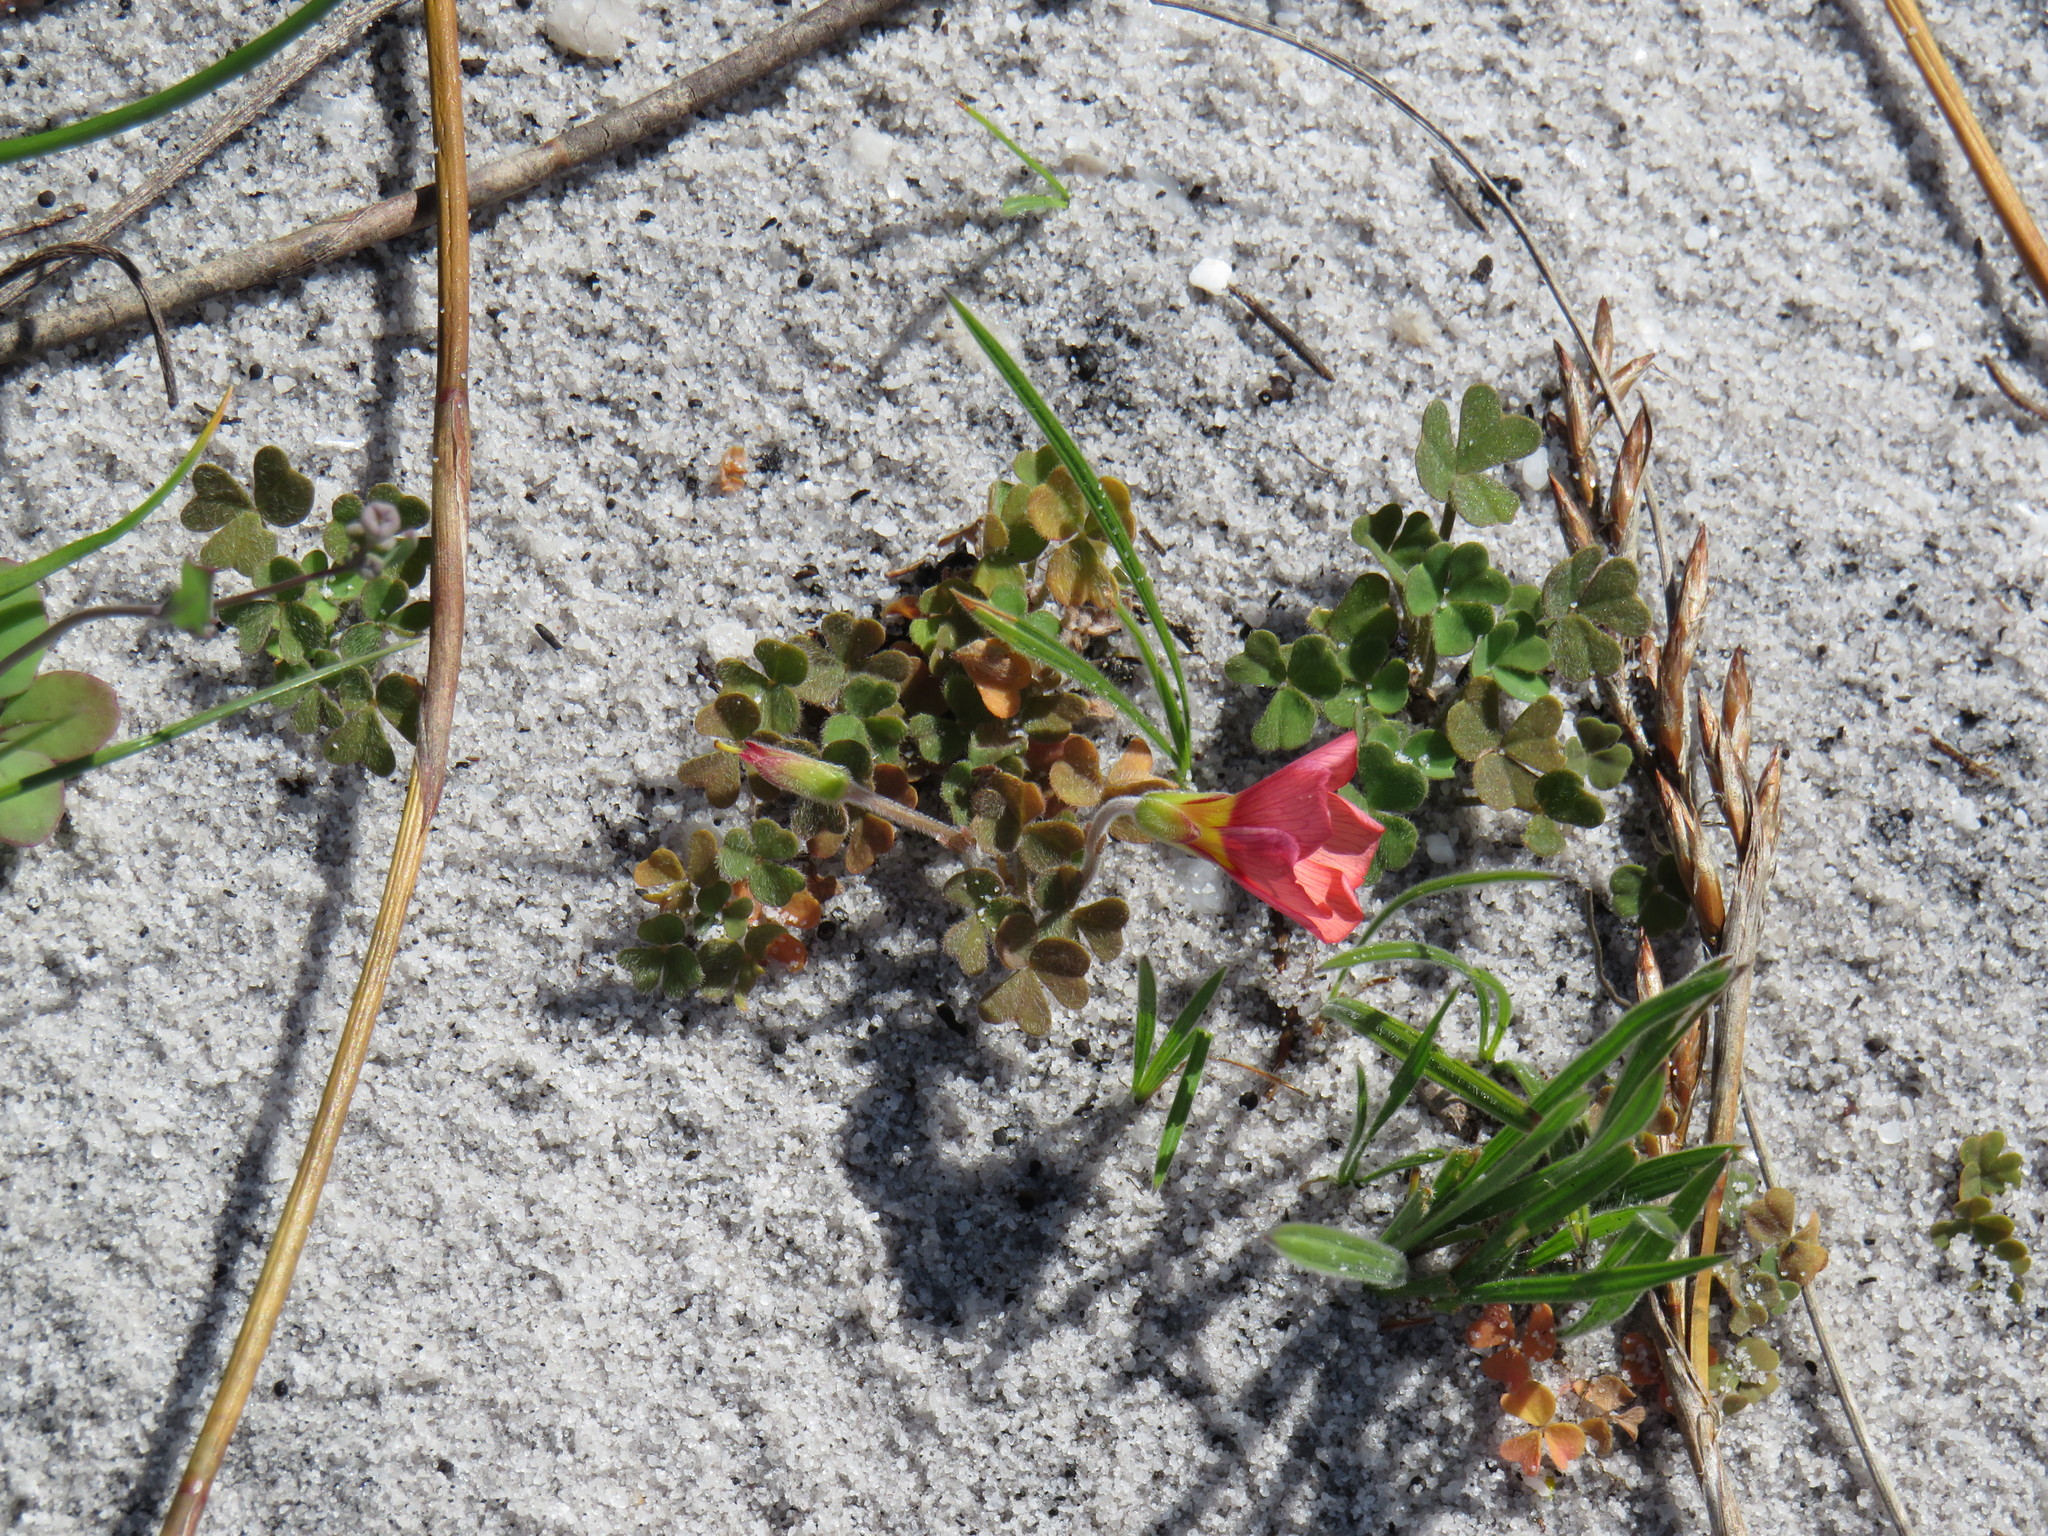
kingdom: Plantae
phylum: Tracheophyta
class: Magnoliopsida
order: Oxalidales
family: Oxalidaceae
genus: Oxalis
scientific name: Oxalis obtusa
